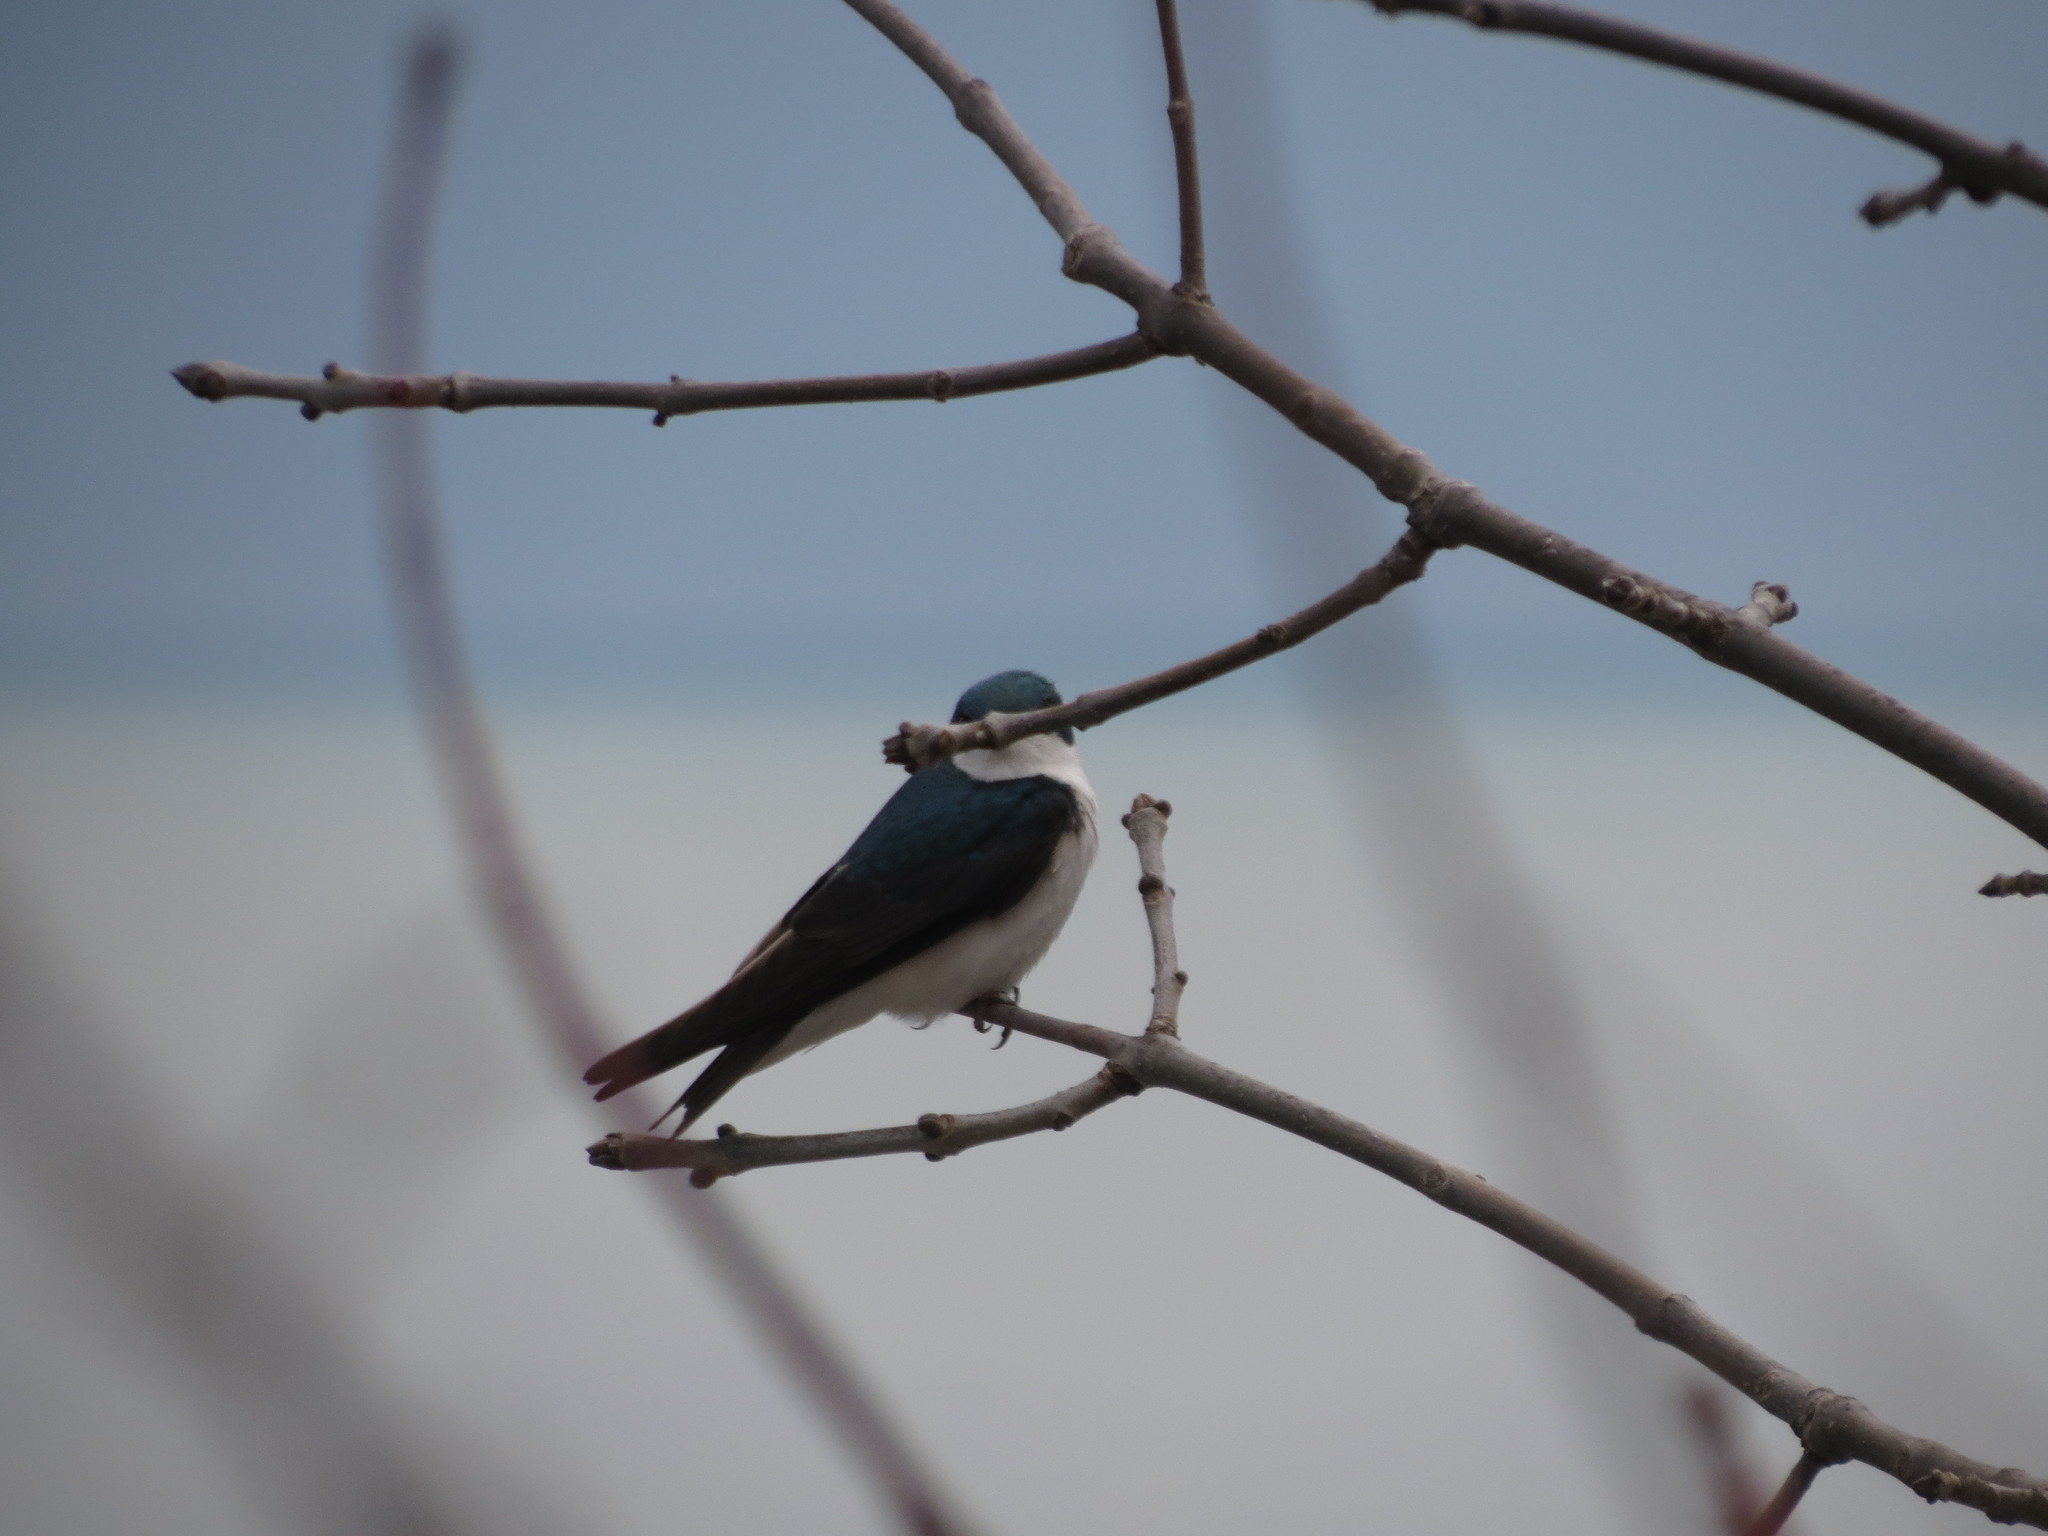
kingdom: Animalia
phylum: Chordata
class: Aves
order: Passeriformes
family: Hirundinidae
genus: Tachycineta
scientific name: Tachycineta bicolor
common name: Tree swallow
